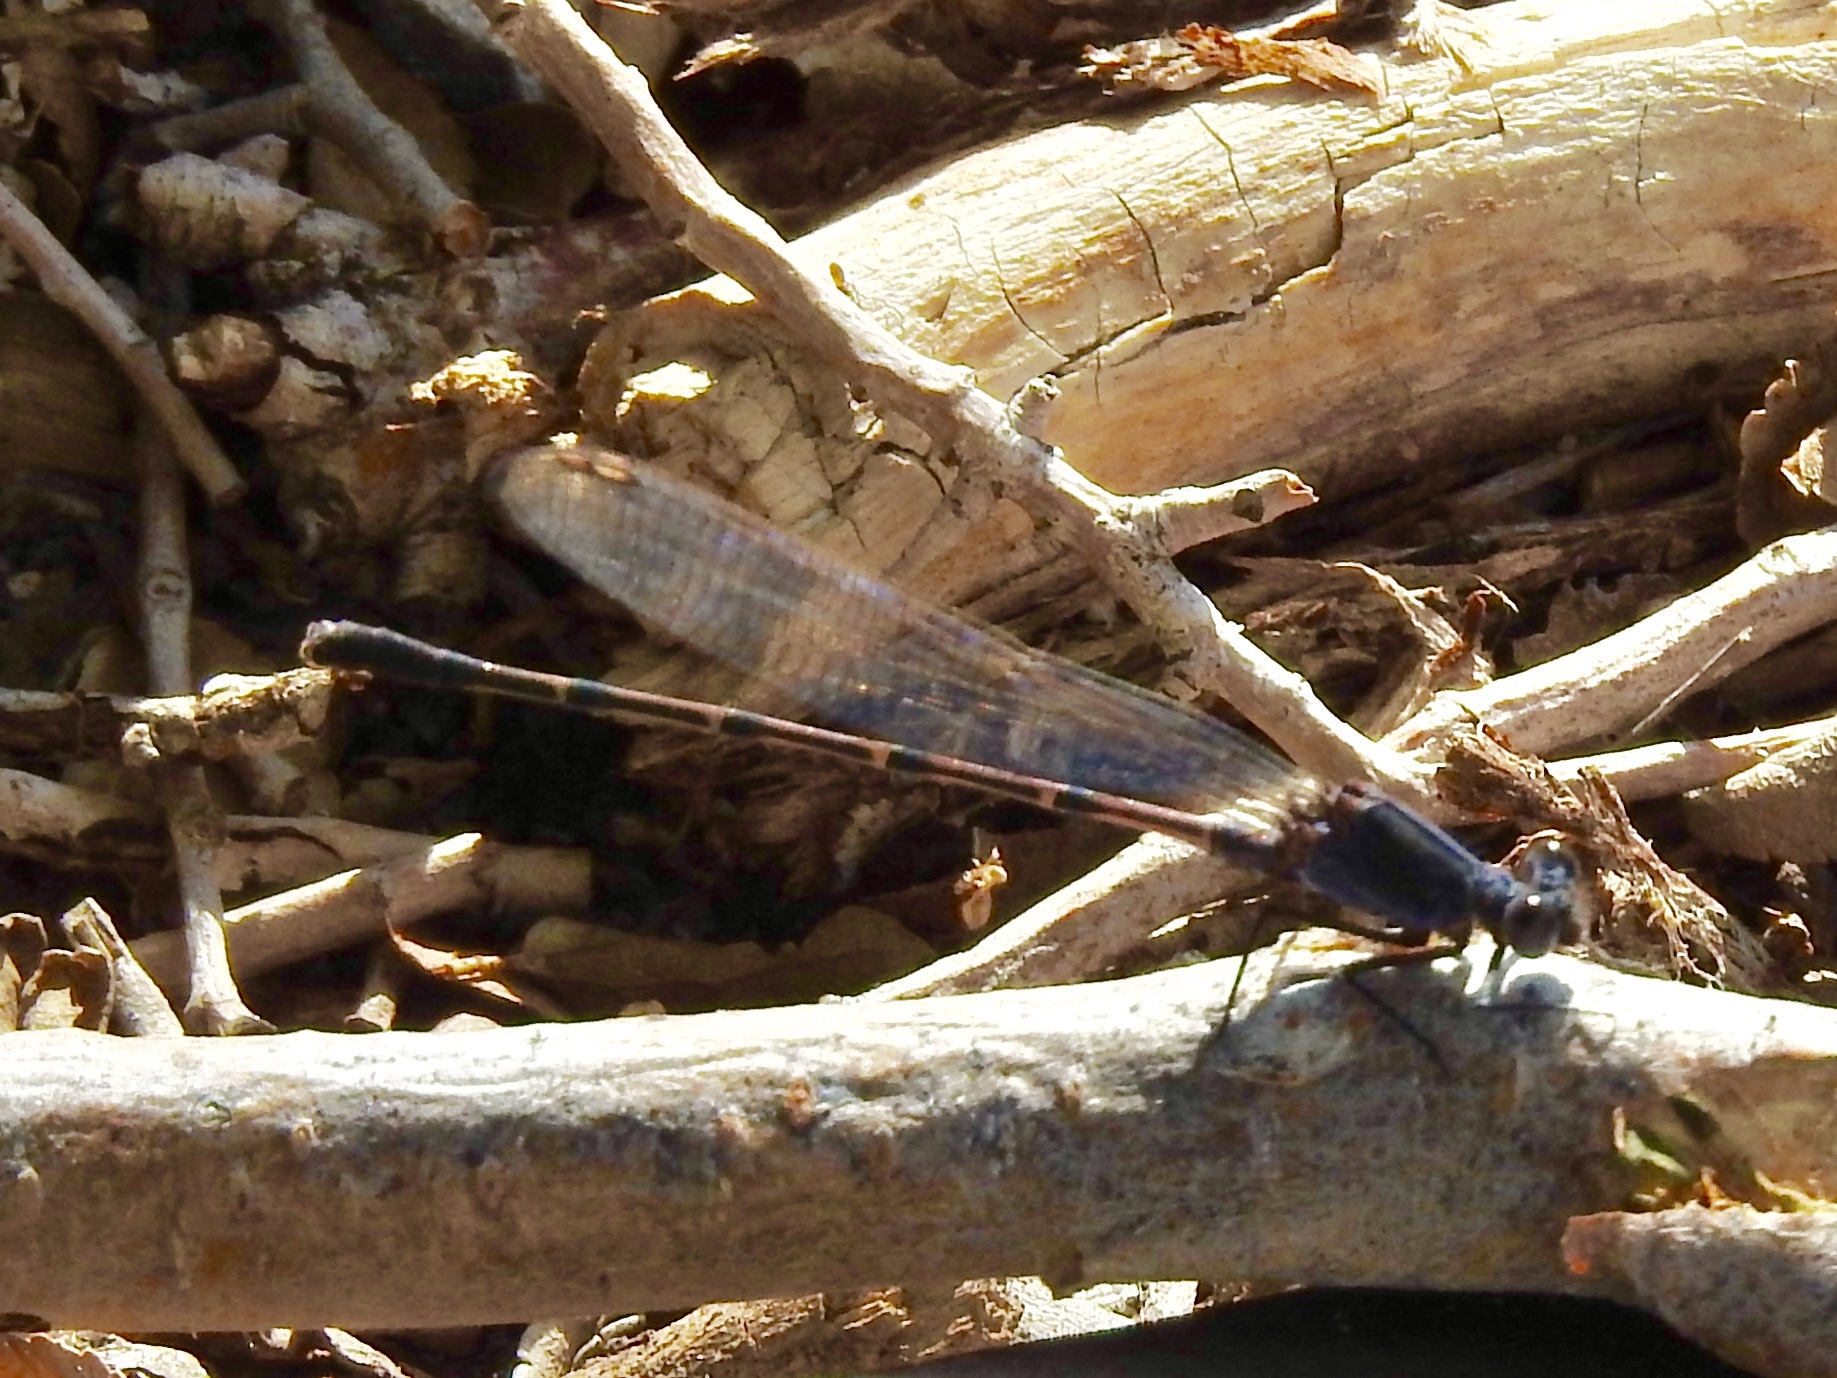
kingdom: Animalia
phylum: Arthropoda
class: Insecta
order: Odonata
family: Coenagrionidae
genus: Argia
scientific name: Argia lugens
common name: Sooty dancer
